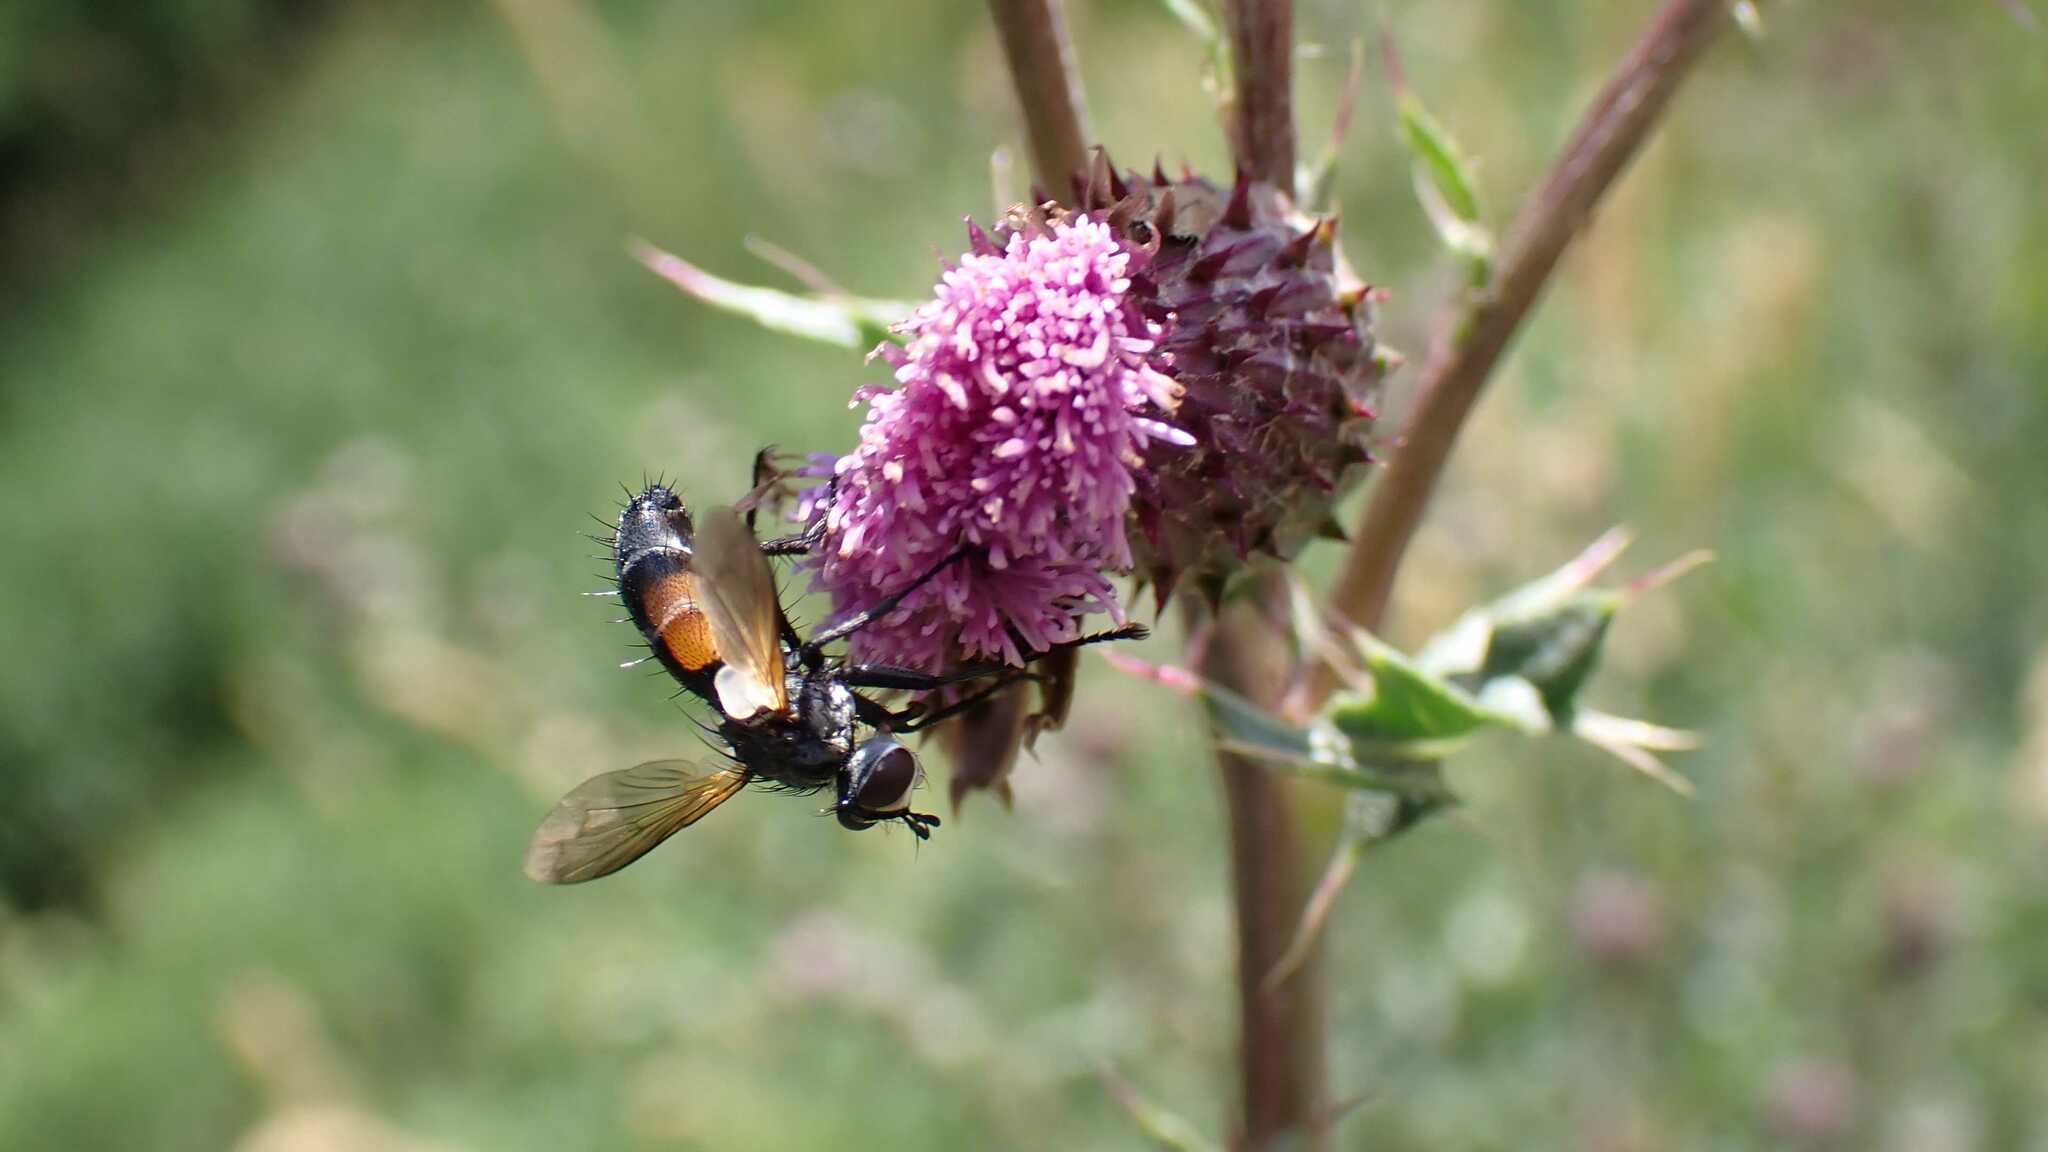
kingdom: Animalia
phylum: Arthropoda
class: Insecta
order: Diptera
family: Tachinidae
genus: Cylindromyia
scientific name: Cylindromyia
